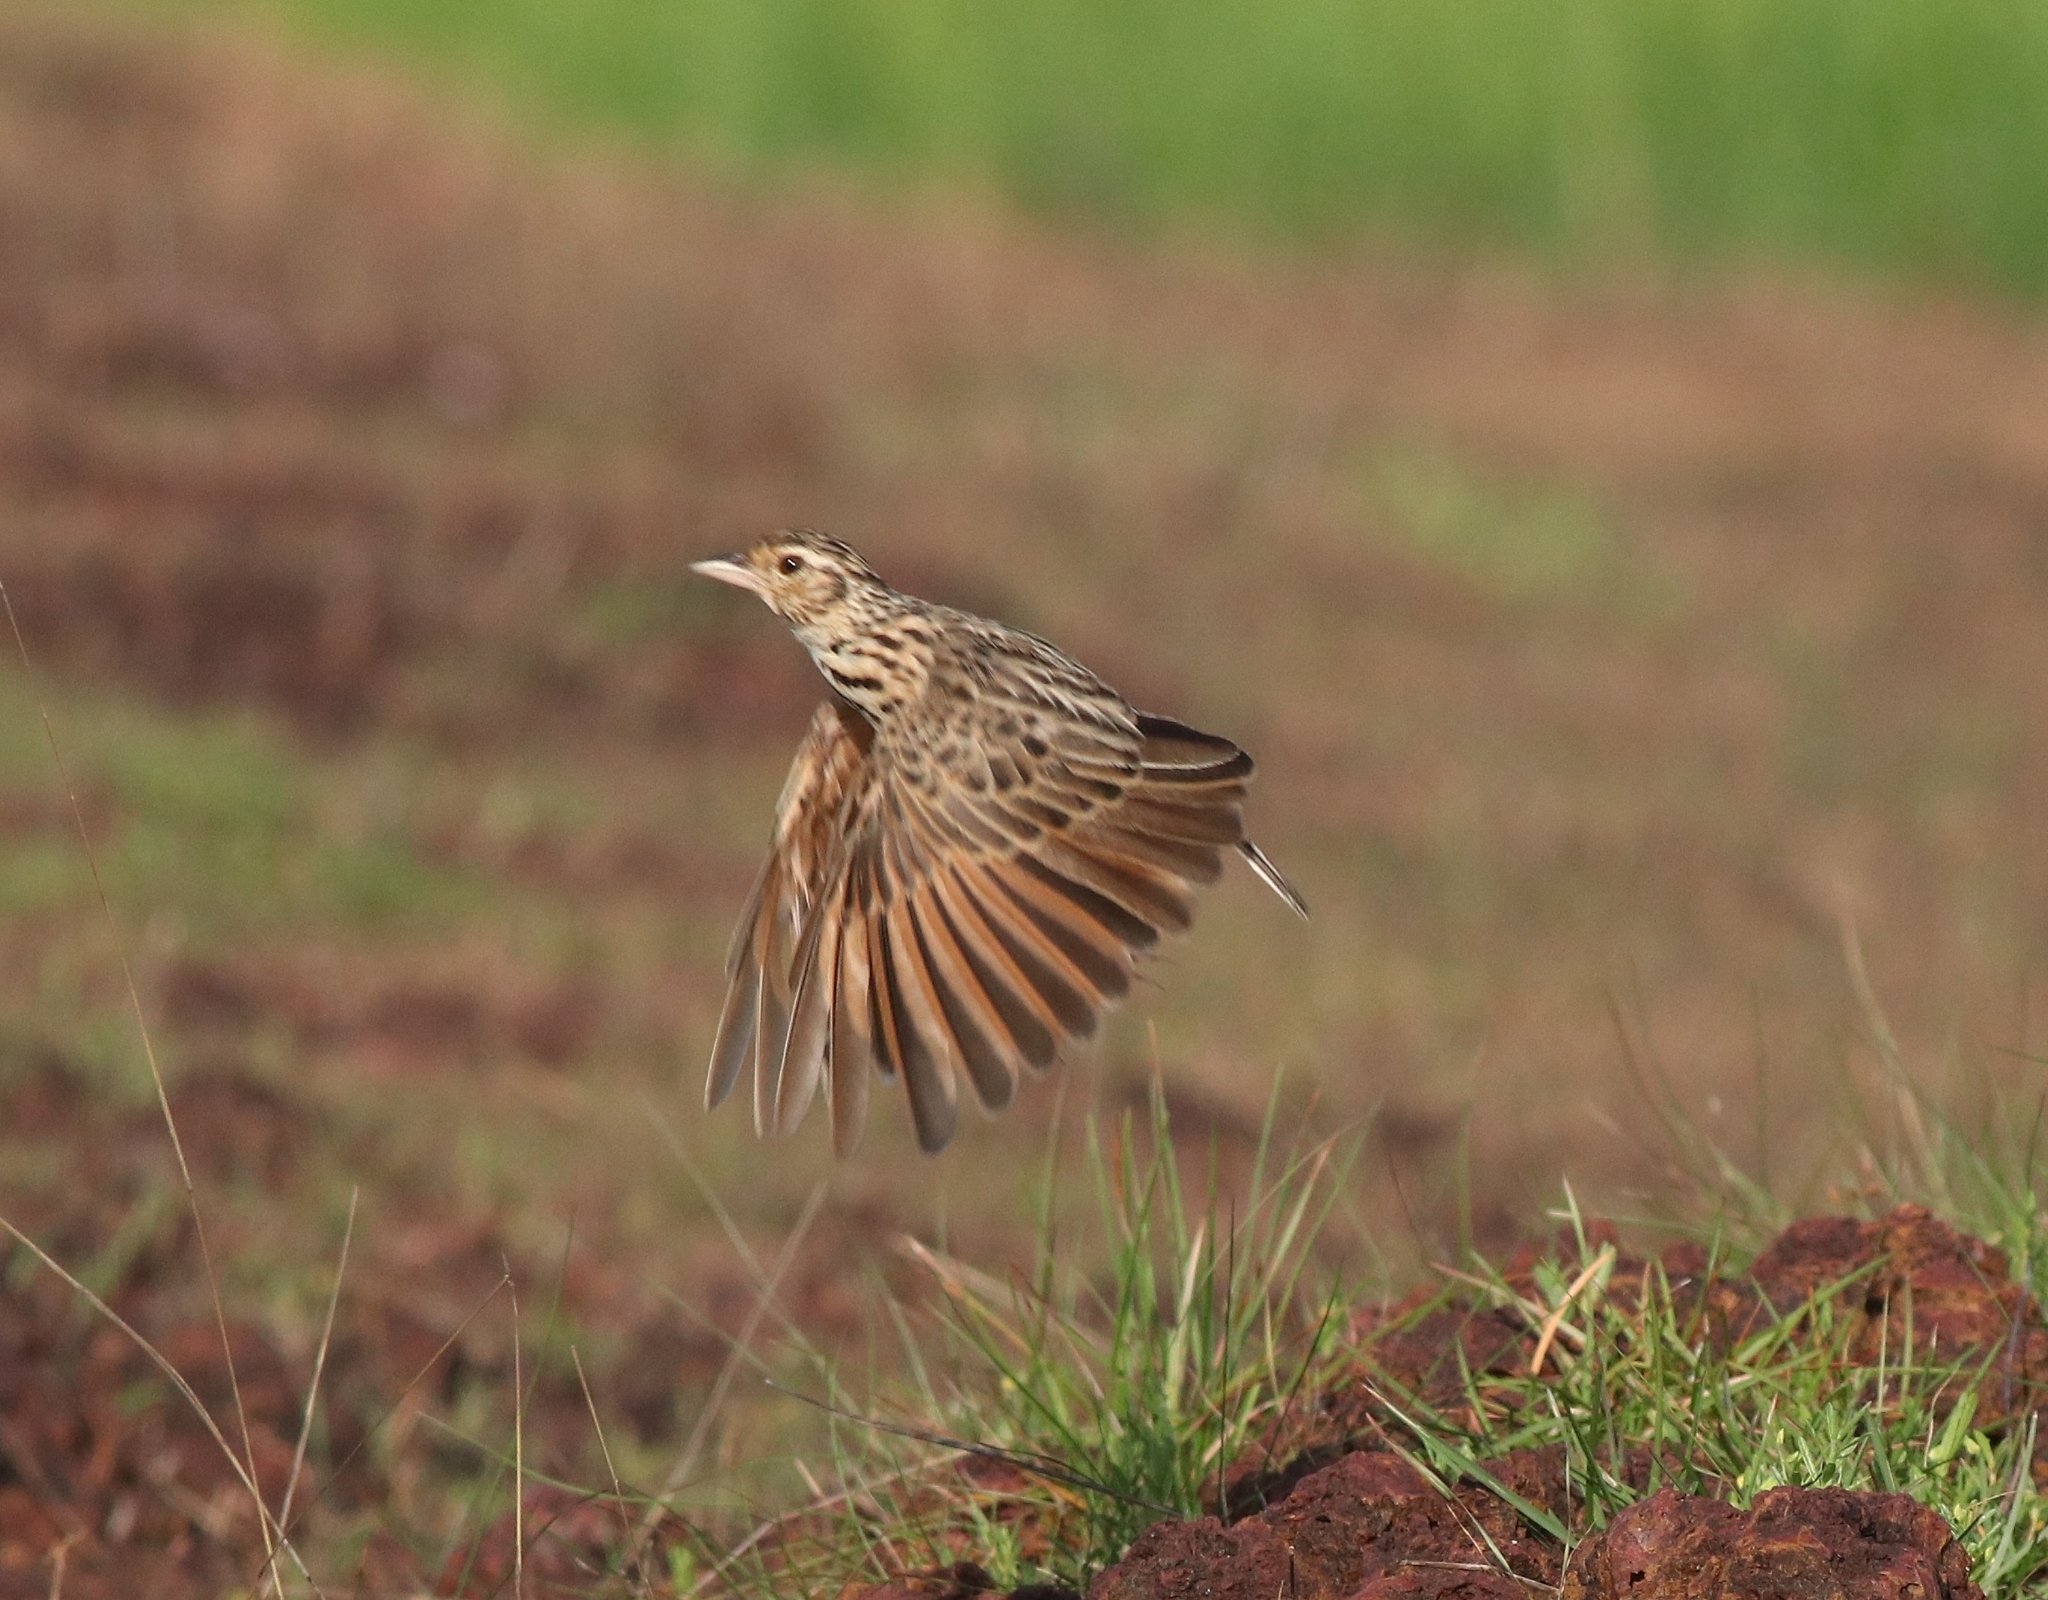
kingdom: Animalia
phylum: Chordata
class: Aves
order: Passeriformes
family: Alaudidae
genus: Mirafra
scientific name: Mirafra affinis
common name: Jerdon's bushlark
